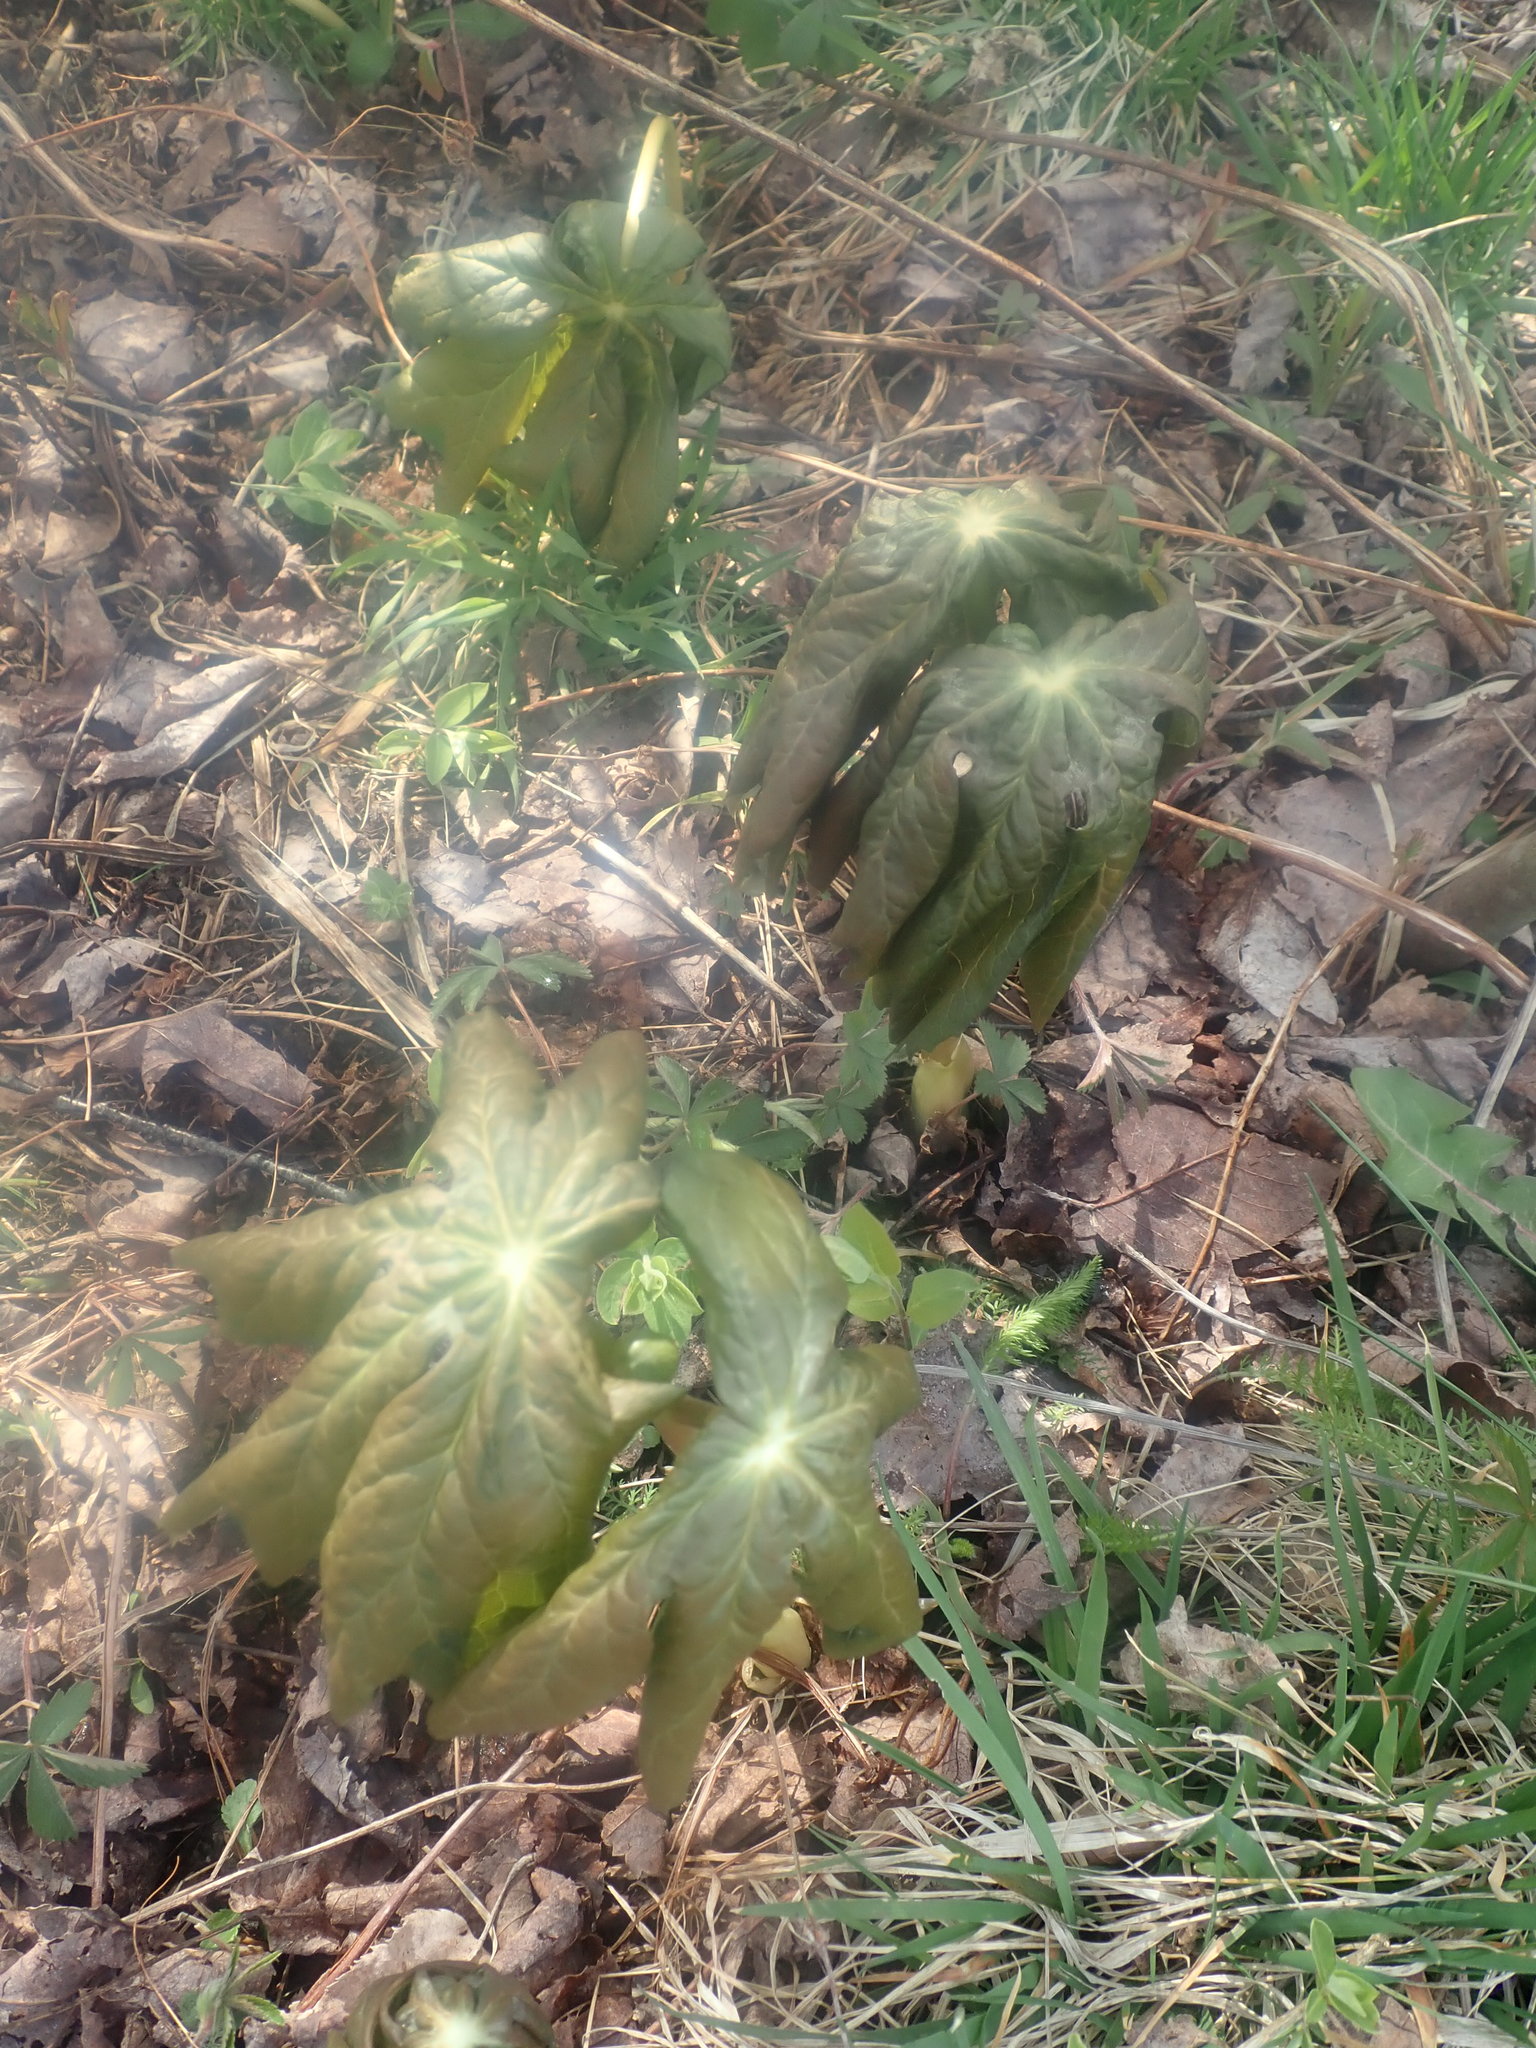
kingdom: Plantae
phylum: Tracheophyta
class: Magnoliopsida
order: Ranunculales
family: Berberidaceae
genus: Podophyllum
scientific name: Podophyllum peltatum
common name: Wild mandrake
